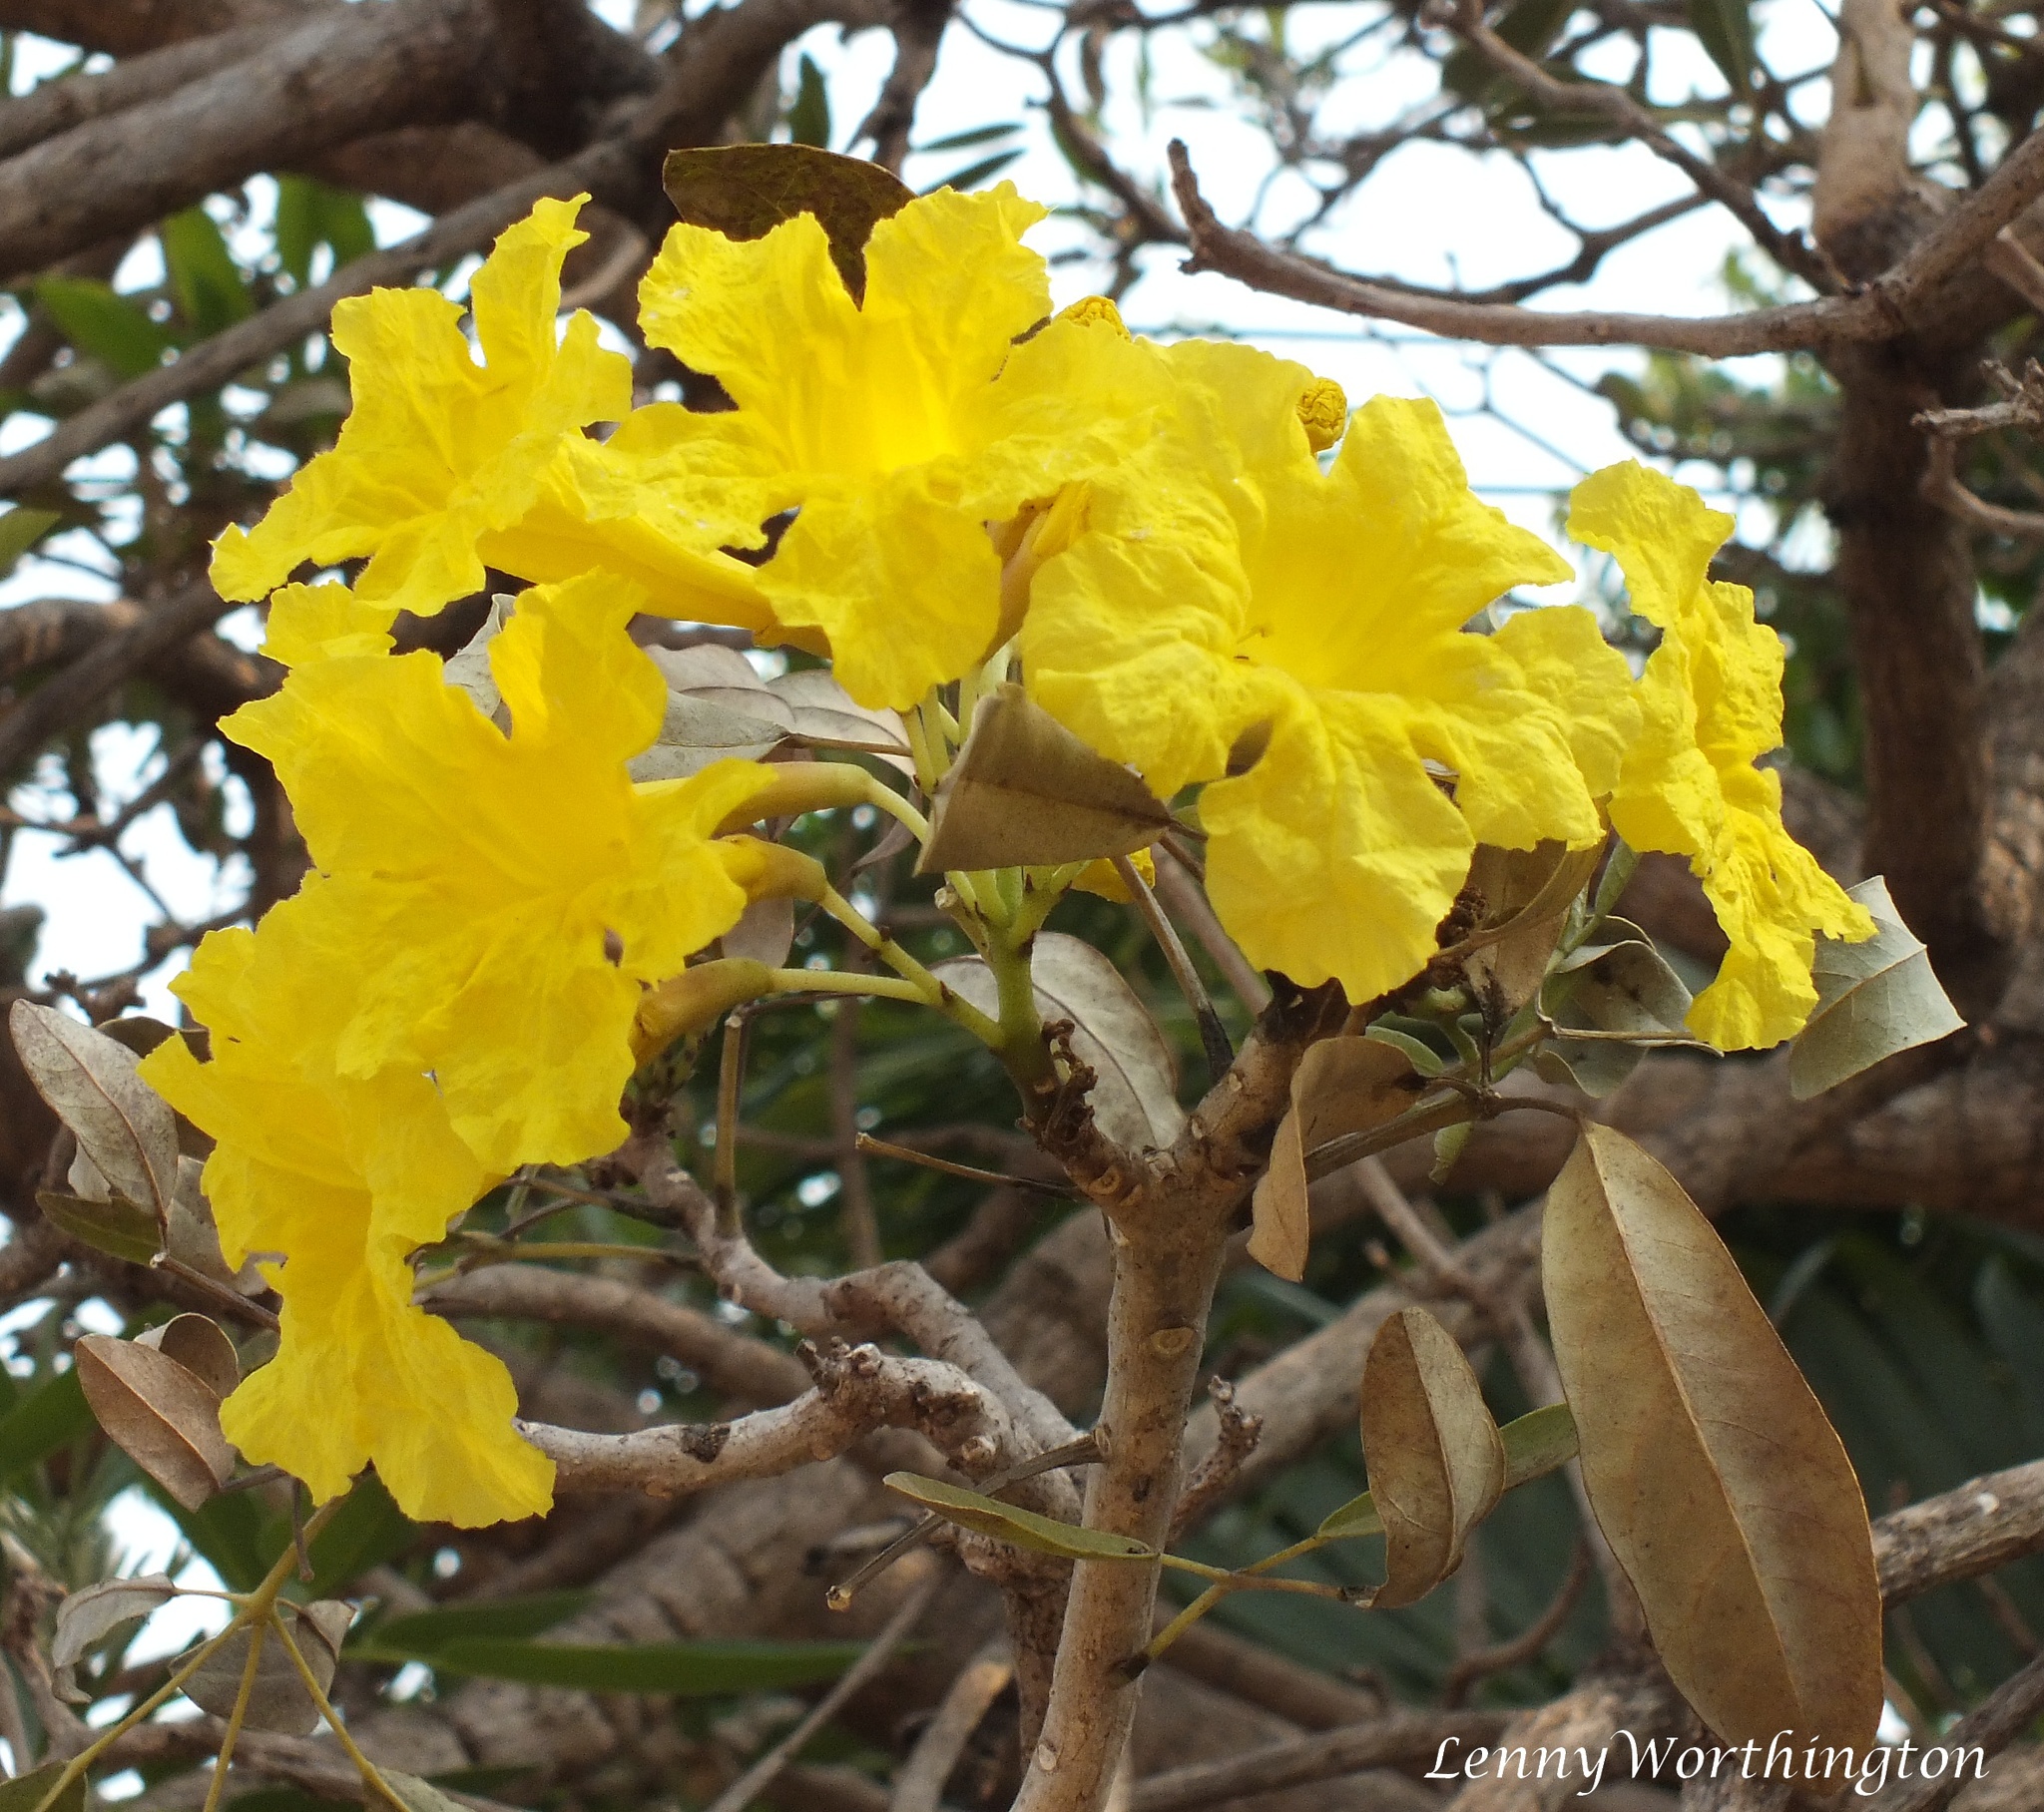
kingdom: Plantae
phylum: Tracheophyta
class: Magnoliopsida
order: Lamiales
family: Bignoniaceae
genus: Tabebuia
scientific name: Tabebuia aurea
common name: Caribbean trumpet-tree
